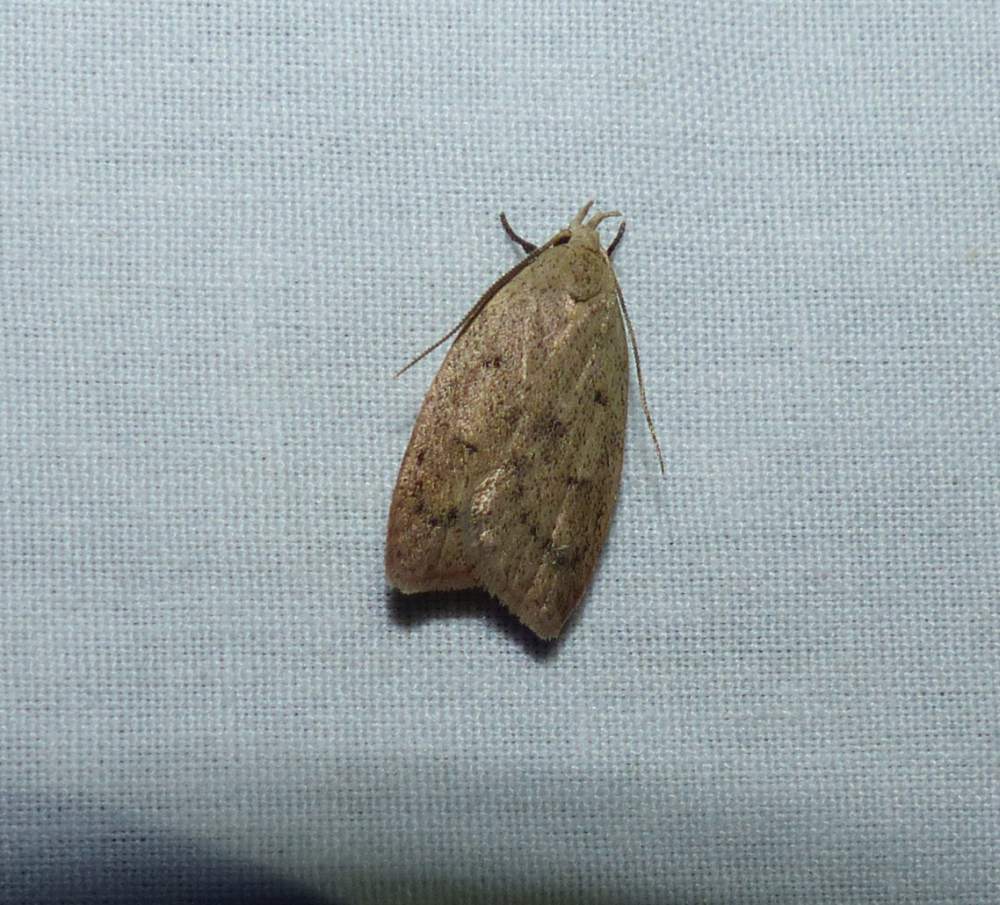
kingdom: Animalia
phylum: Arthropoda
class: Insecta
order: Lepidoptera
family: Peleopodidae
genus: Machimia
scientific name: Machimia tentoriferella
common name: Gold-striped leaftier moth
